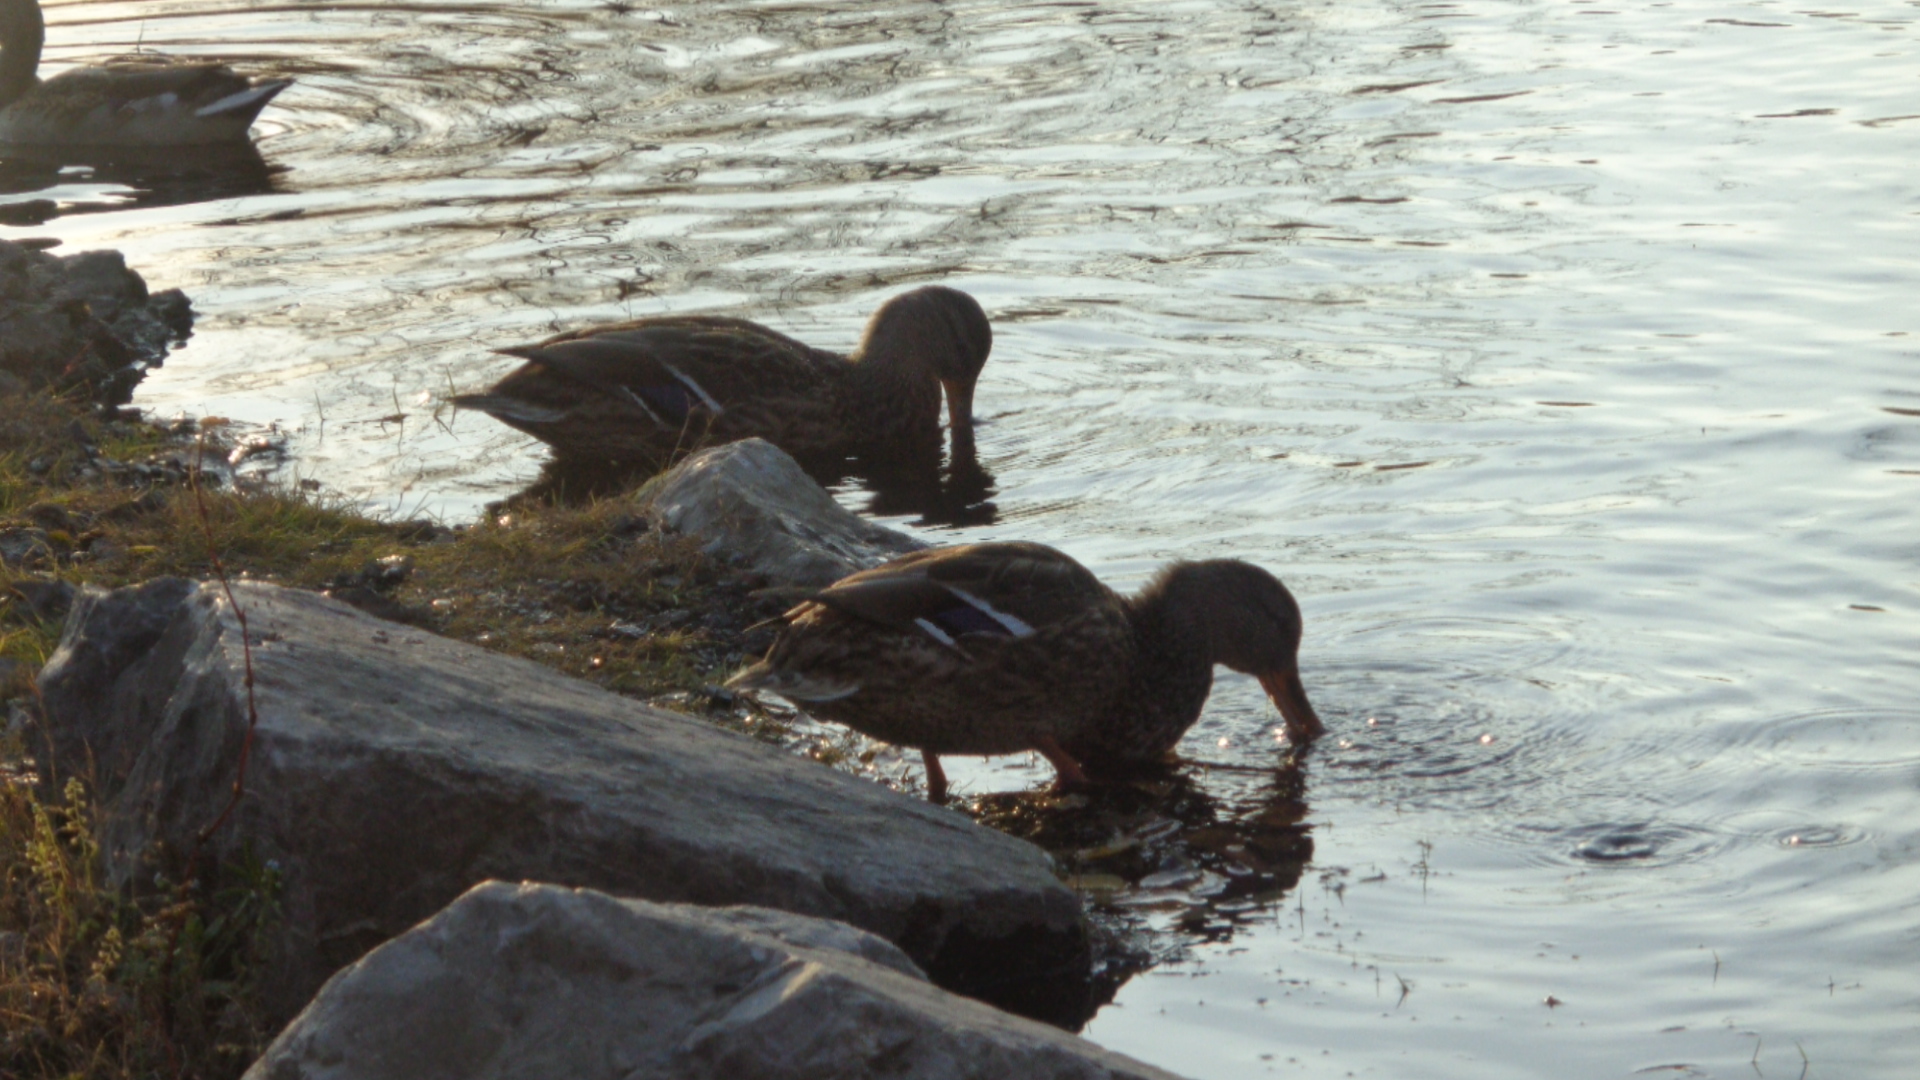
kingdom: Animalia
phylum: Chordata
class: Aves
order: Anseriformes
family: Anatidae
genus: Anas
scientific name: Anas platyrhynchos
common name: Mallard
